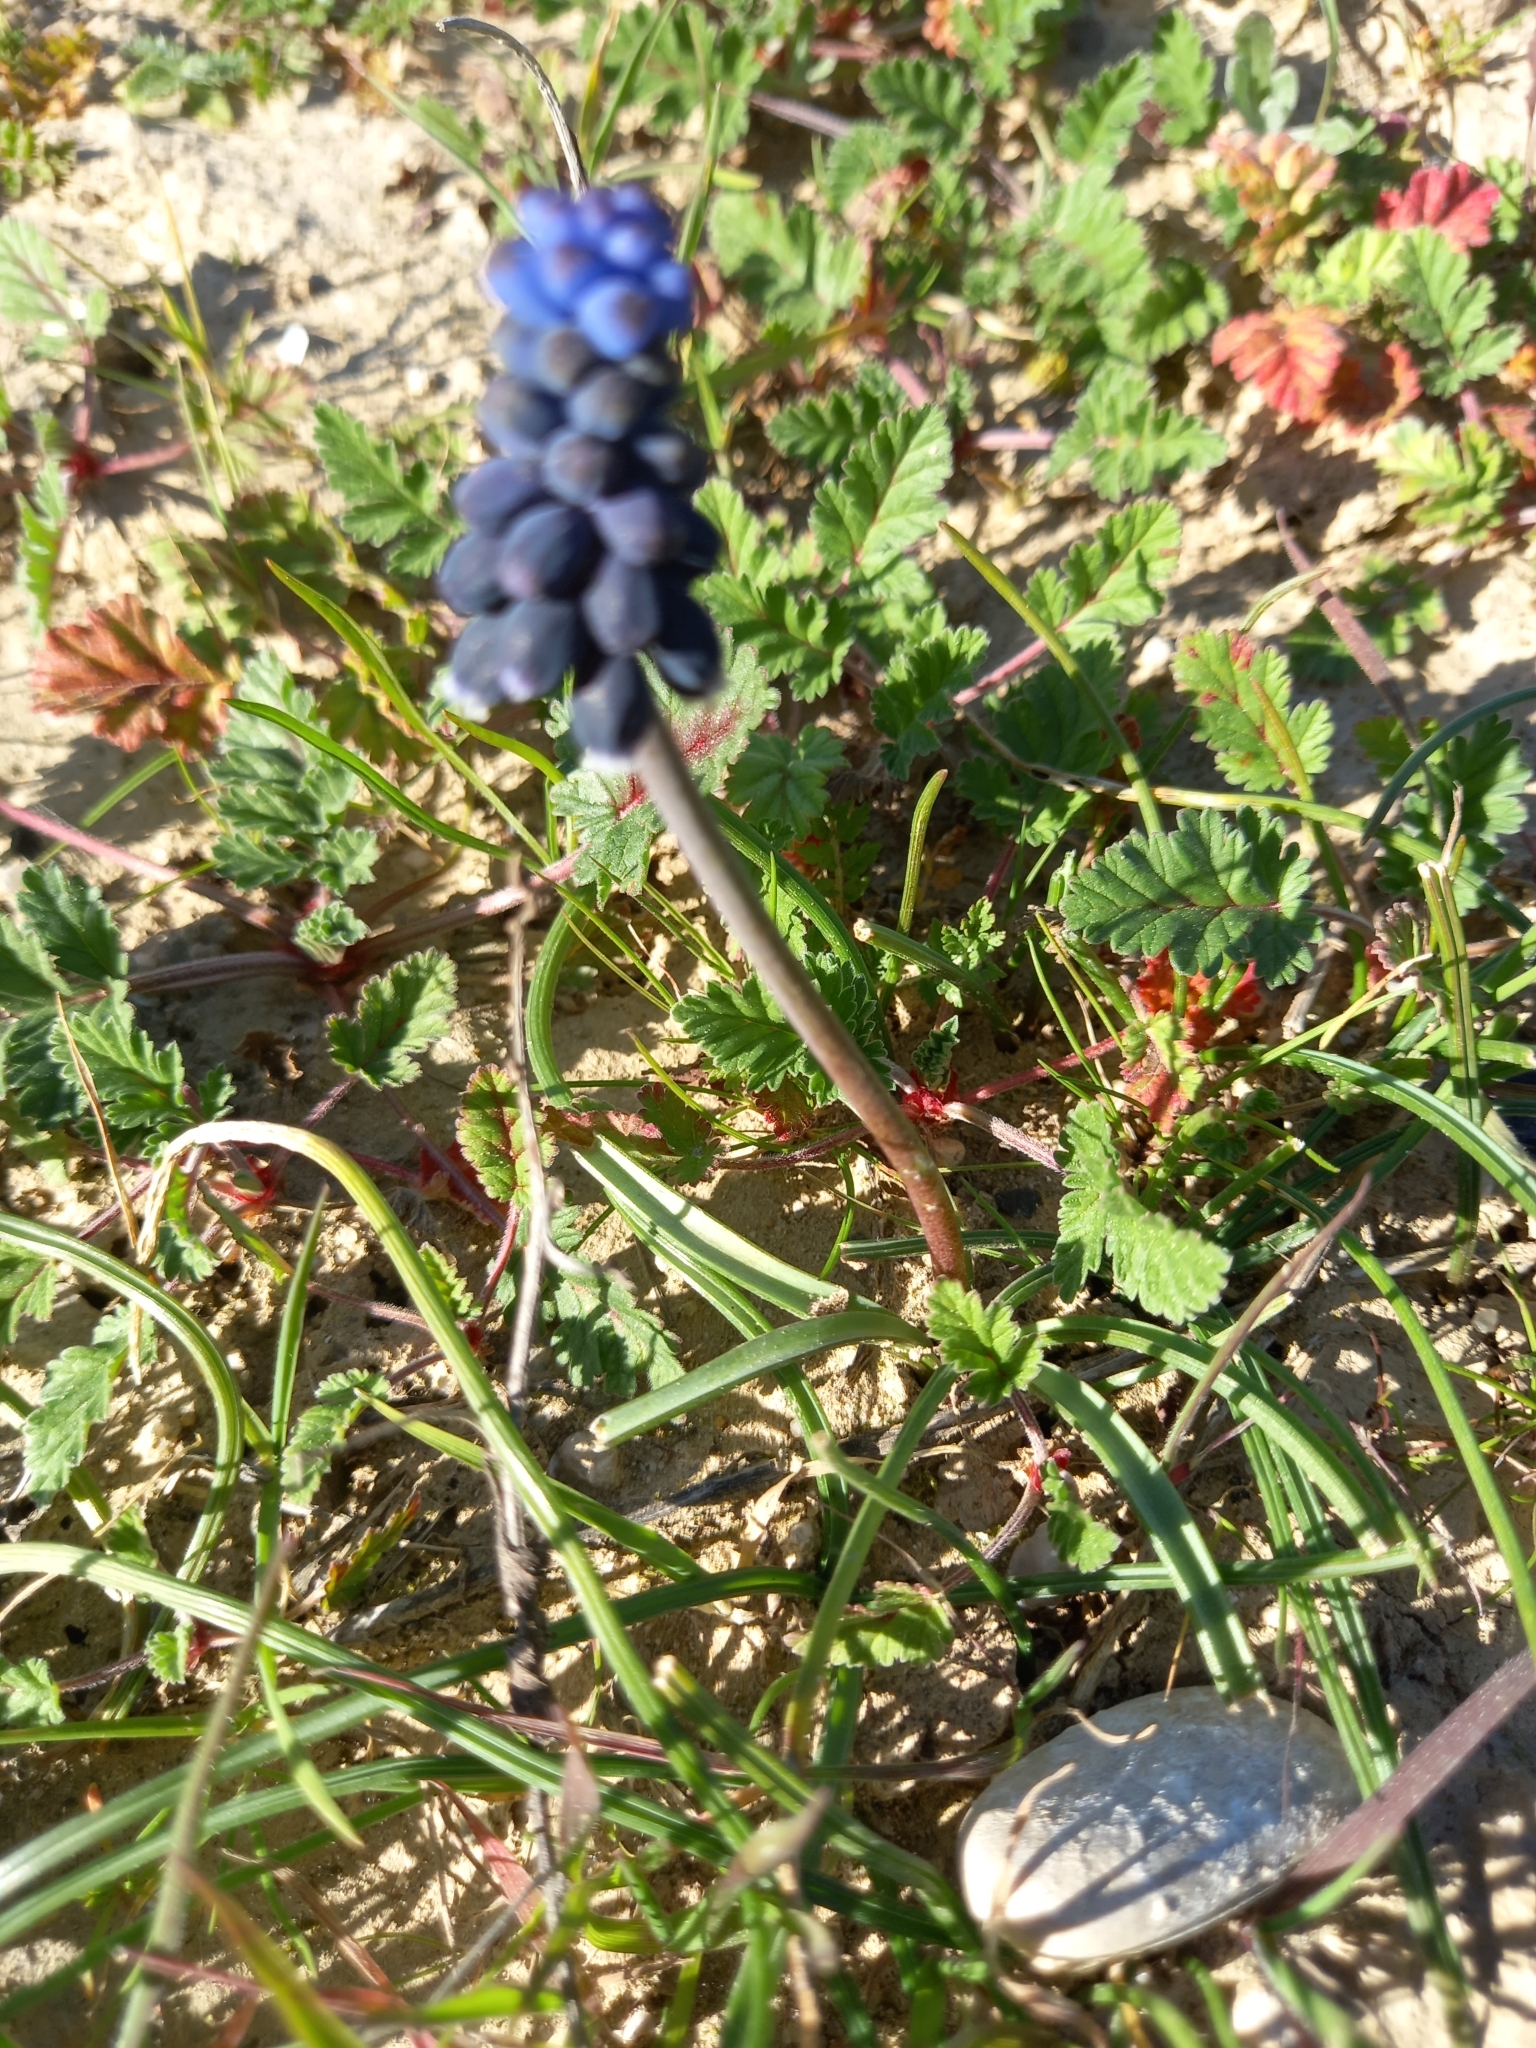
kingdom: Plantae
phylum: Tracheophyta
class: Liliopsida
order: Asparagales
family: Asparagaceae
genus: Muscari
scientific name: Muscari neglectum
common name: Grape-hyacinth
